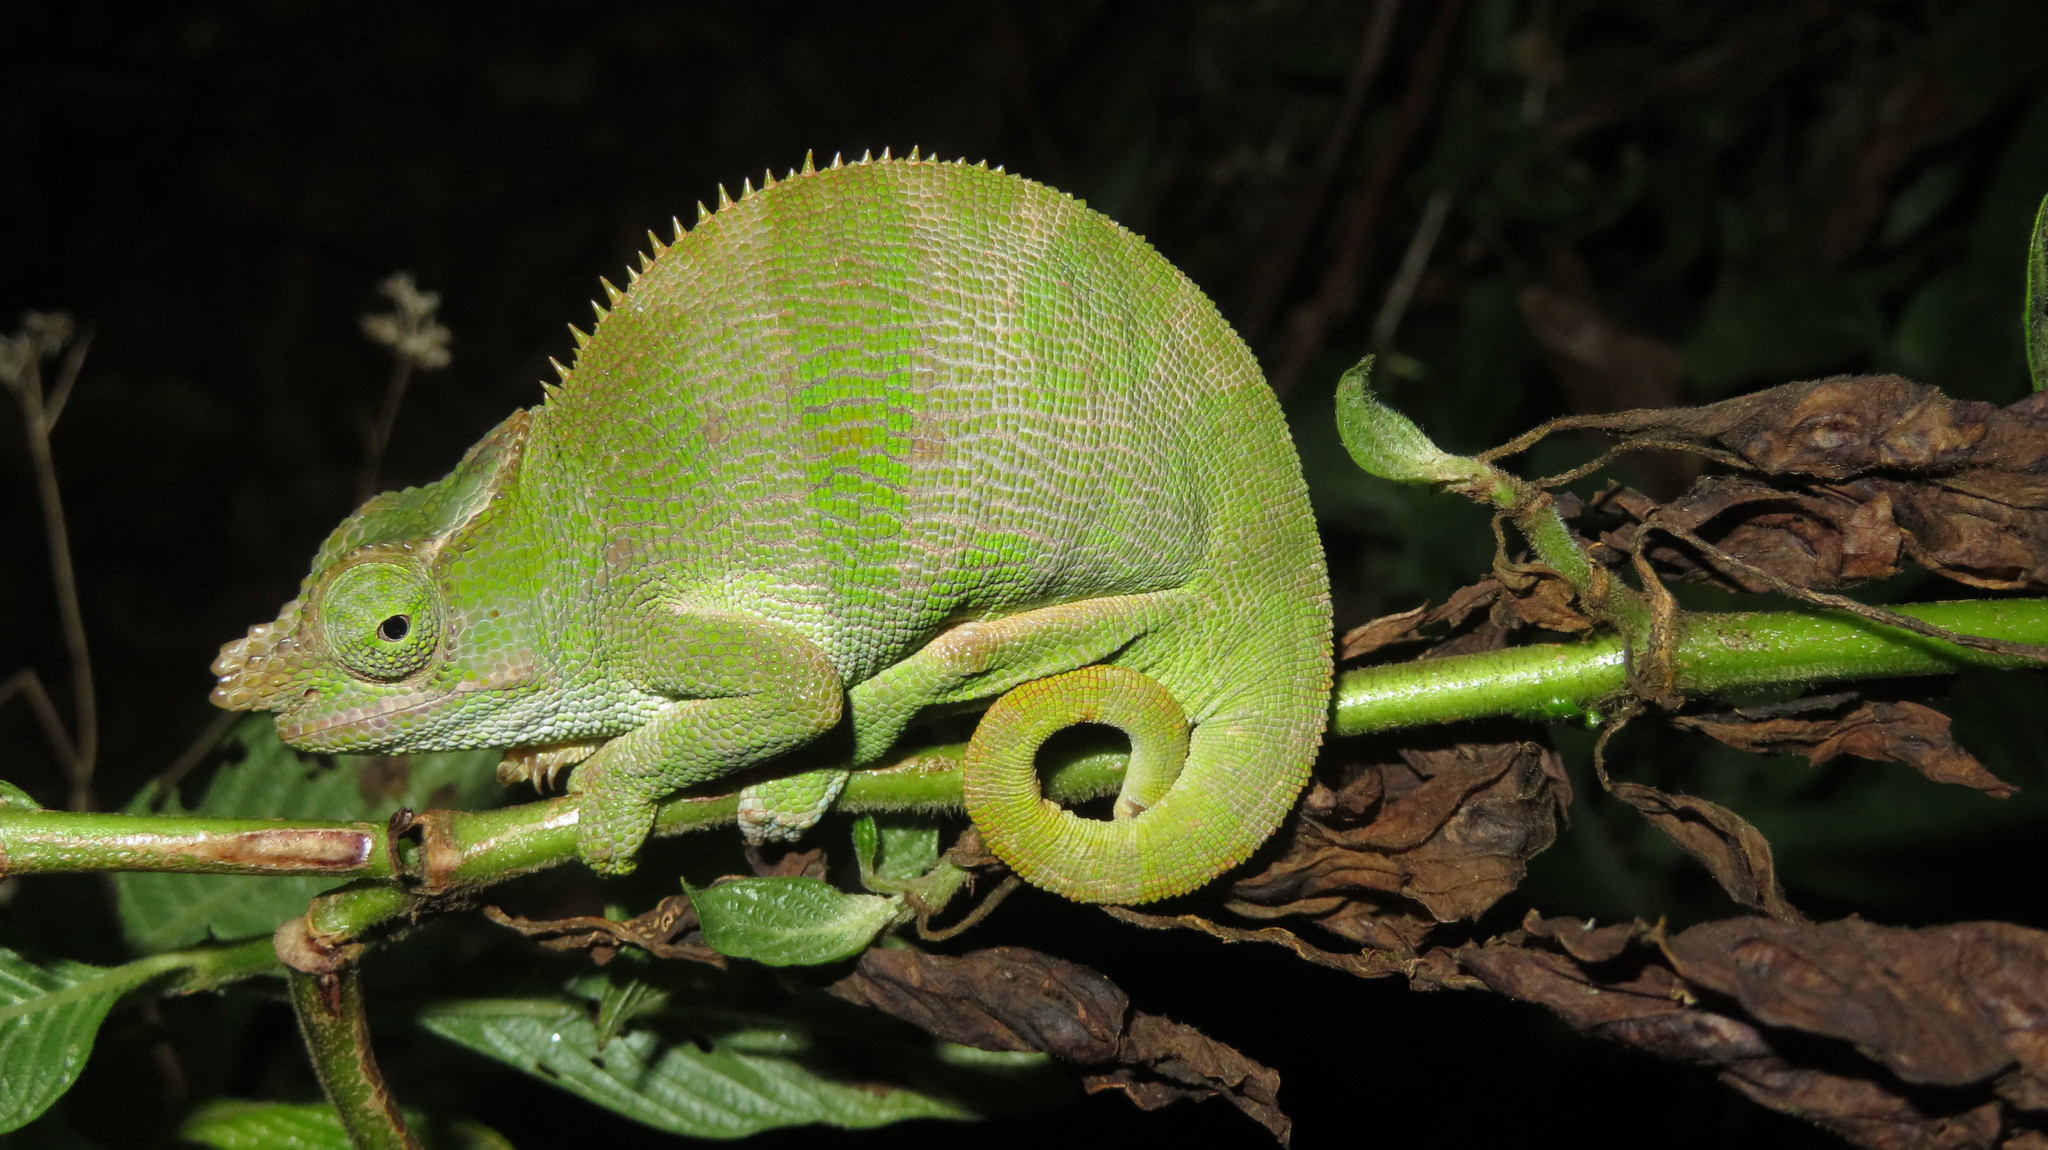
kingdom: Animalia
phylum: Chordata
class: Squamata
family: Chamaeleonidae
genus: Kinyongia
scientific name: Kinyongia multituberculata
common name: West usambara blade-horned chameleon
